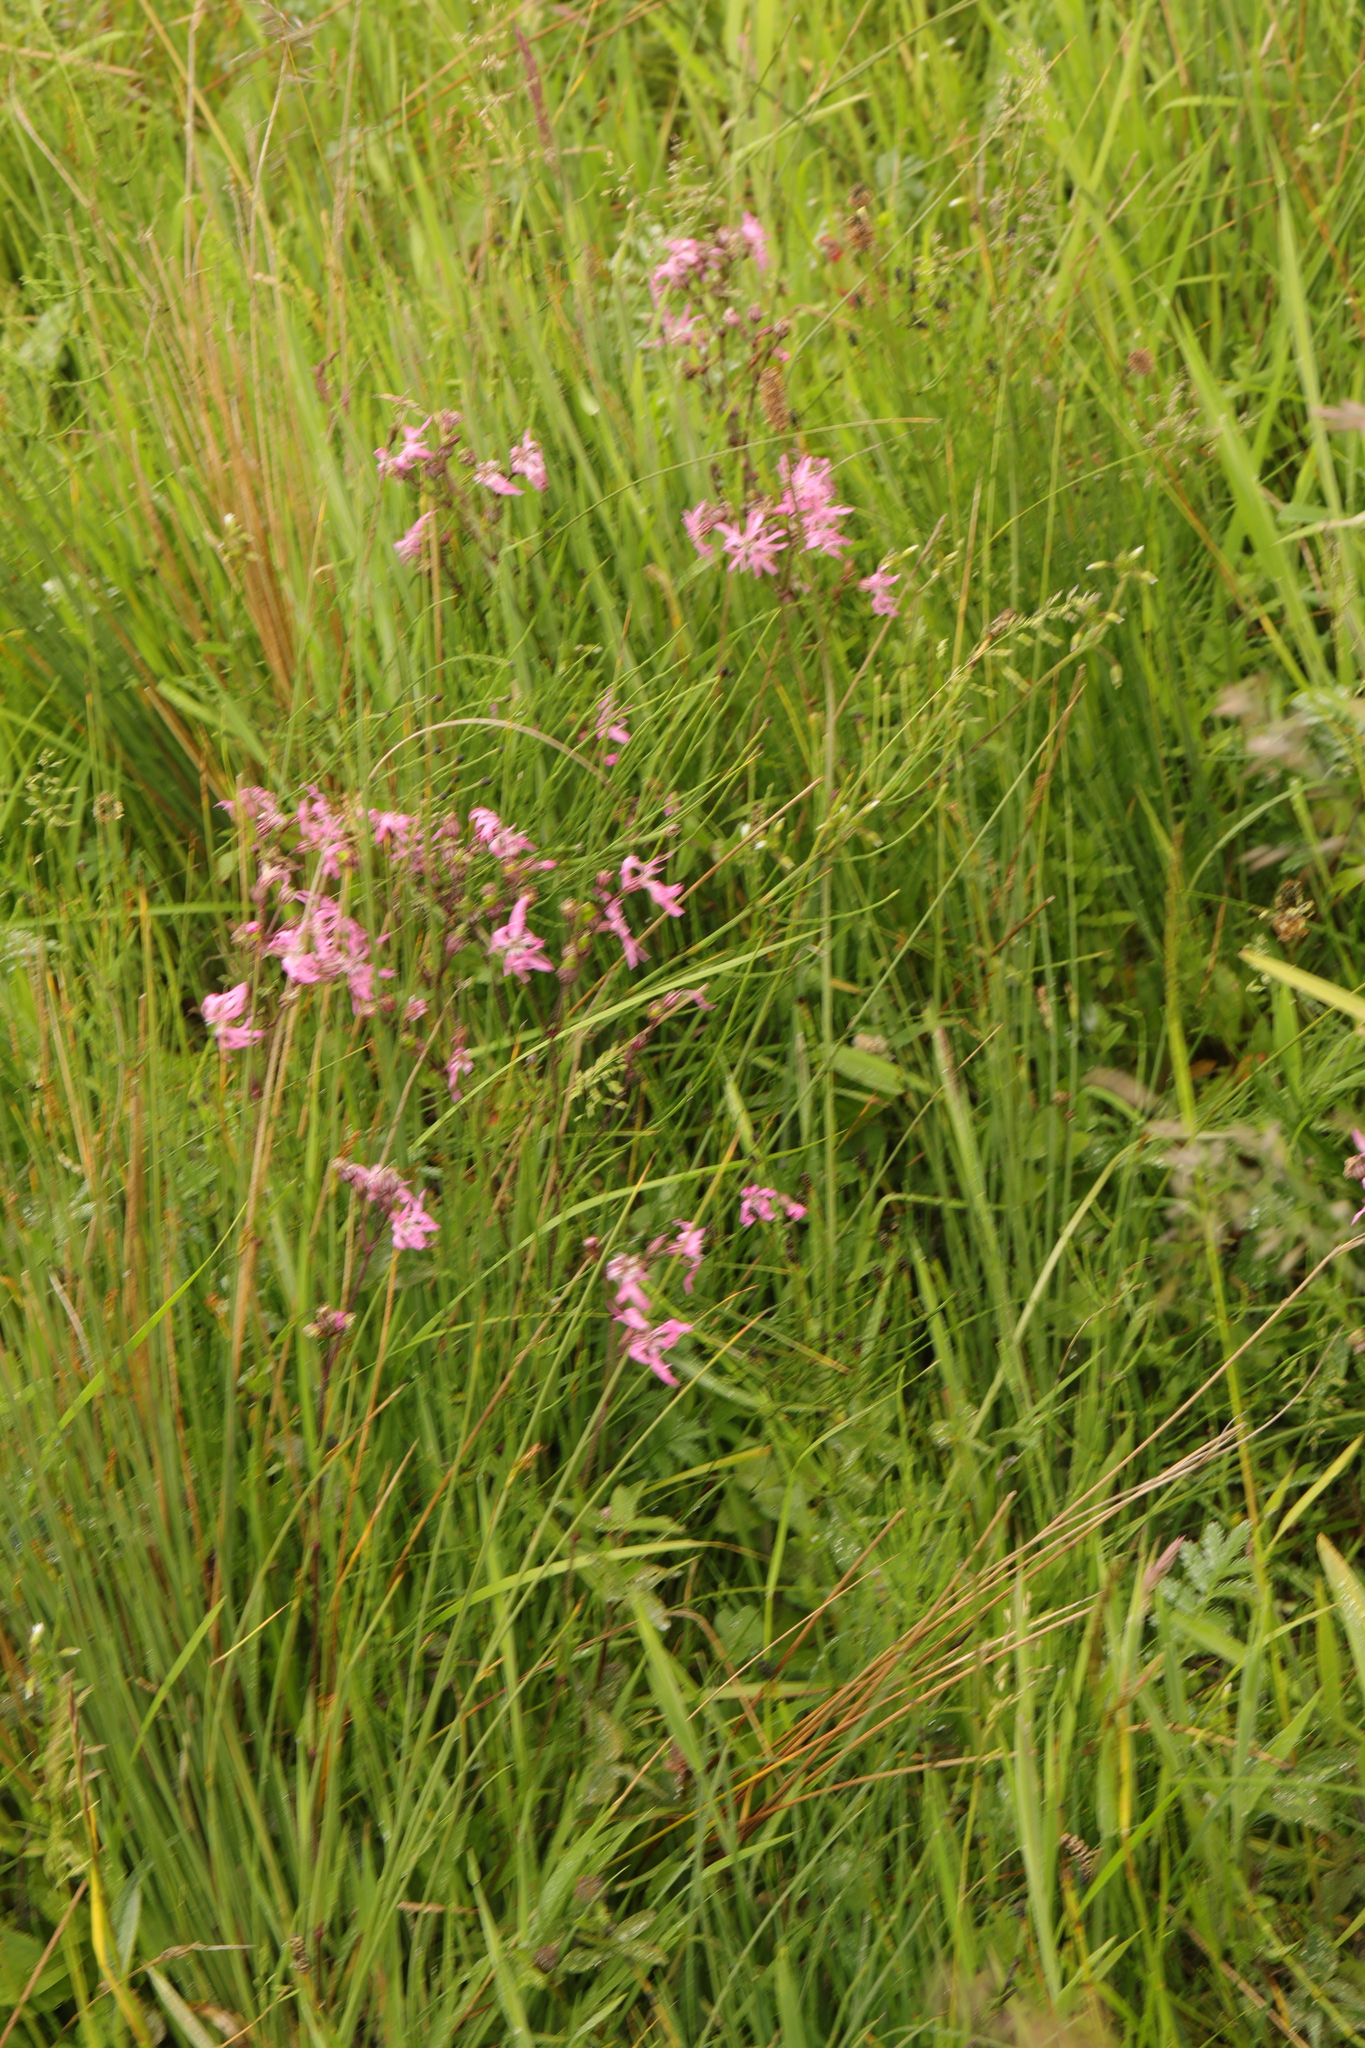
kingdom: Plantae
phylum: Tracheophyta
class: Magnoliopsida
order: Caryophyllales
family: Caryophyllaceae
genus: Silene
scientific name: Silene flos-cuculi
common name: Ragged-robin
